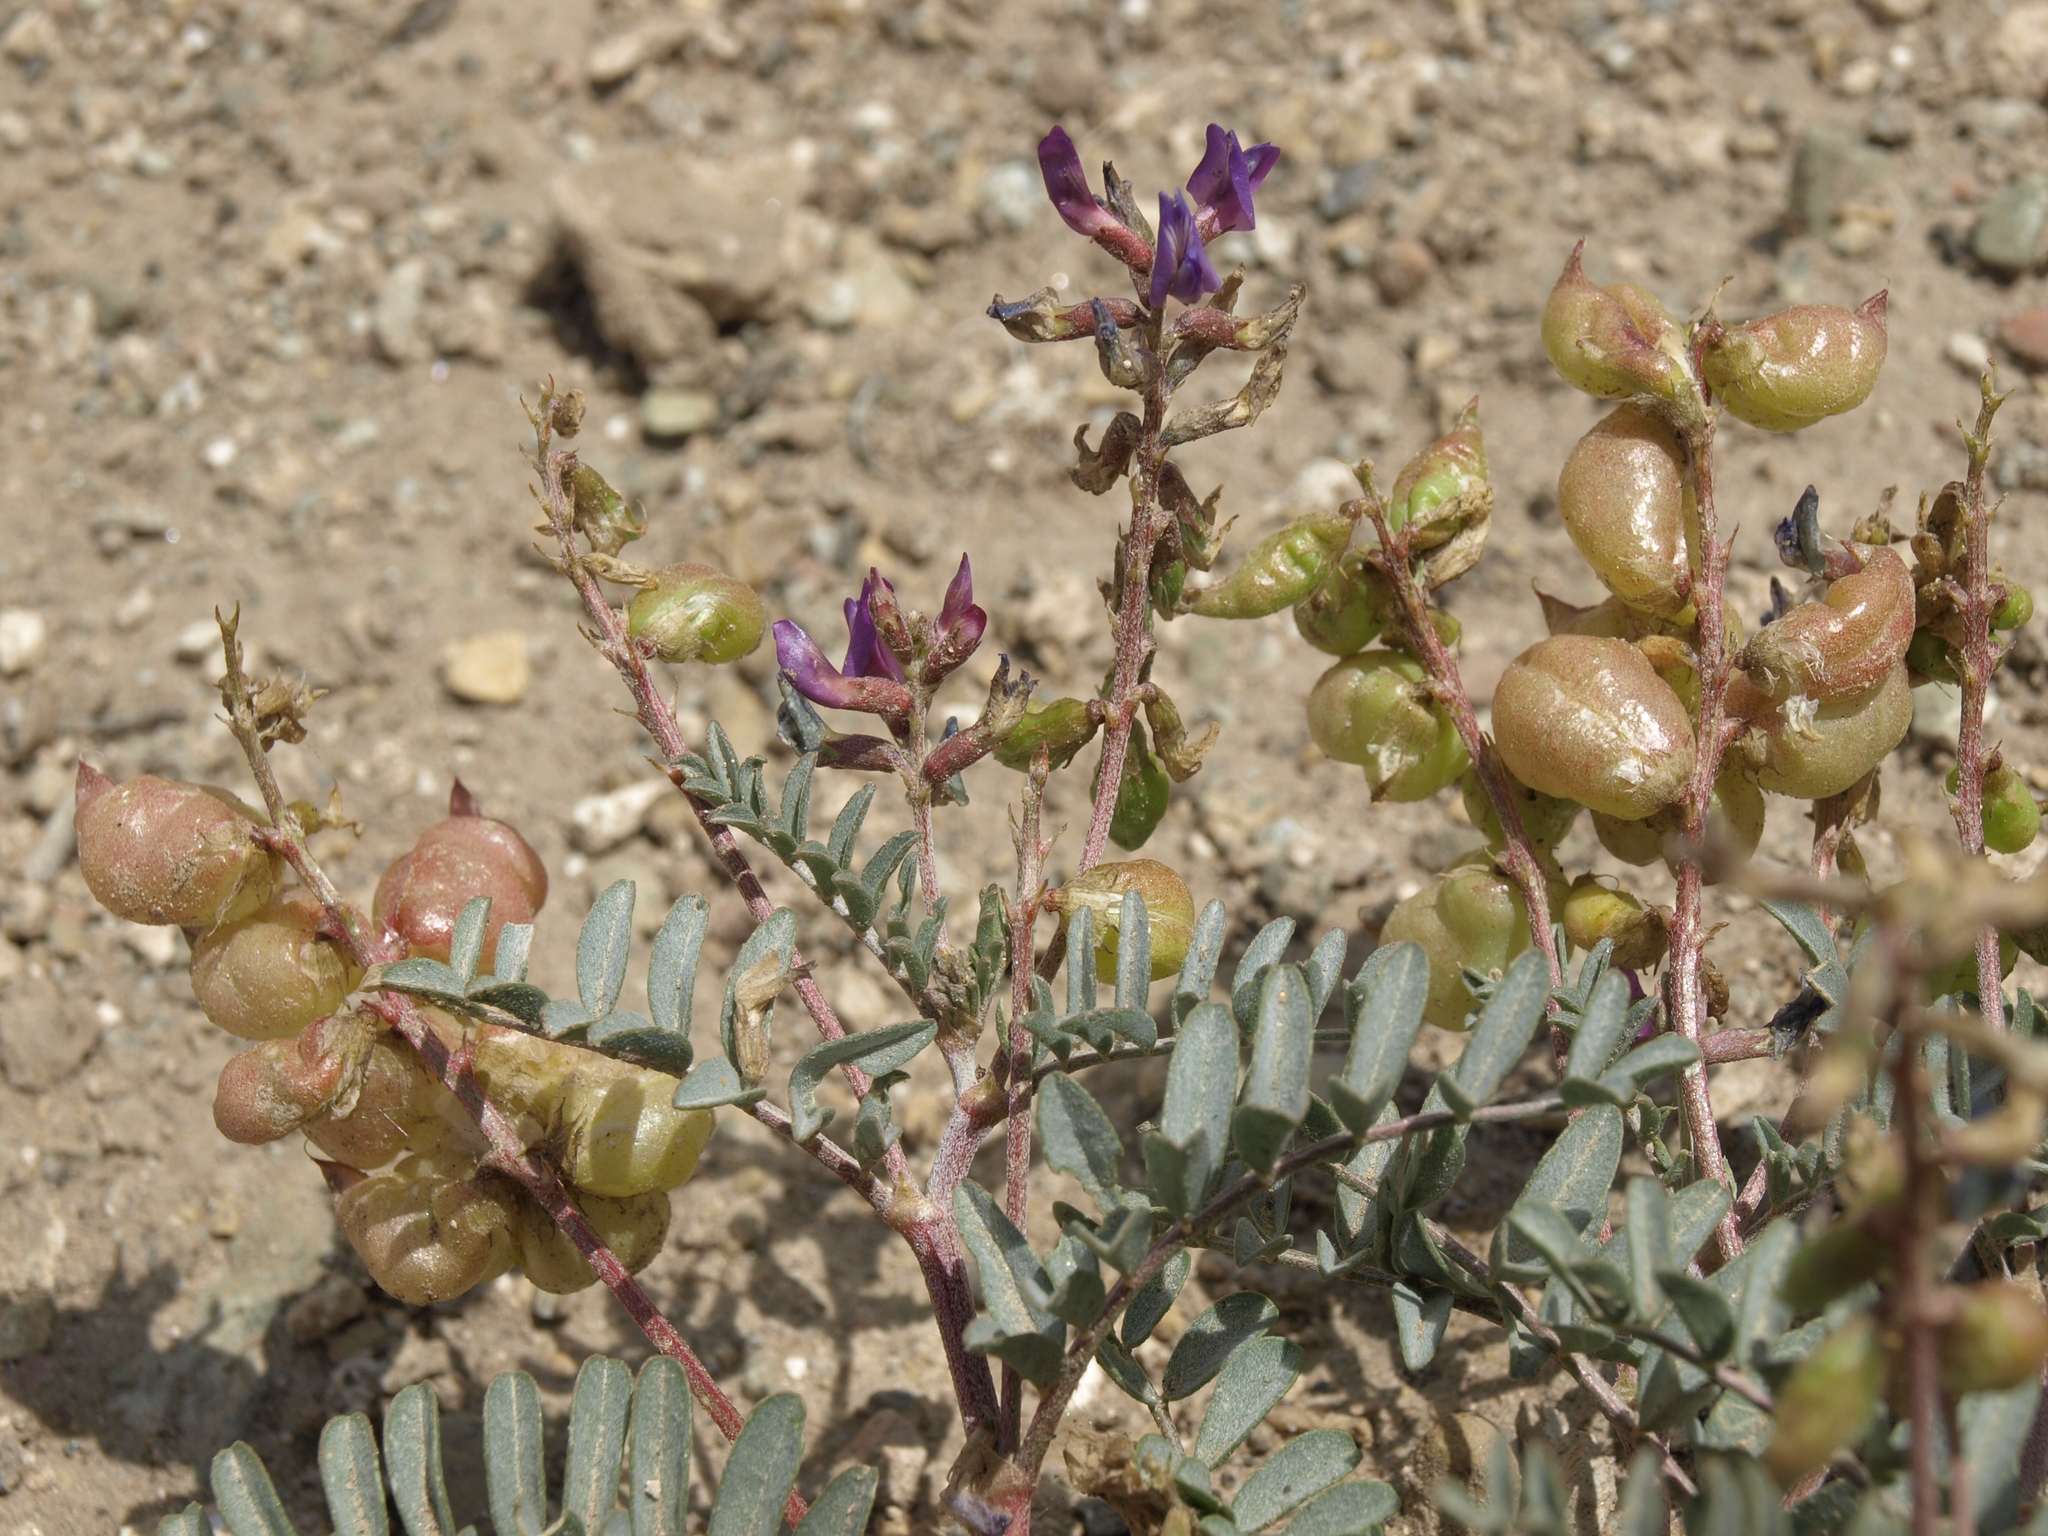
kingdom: Plantae
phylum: Tracheophyta
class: Magnoliopsida
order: Fabales
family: Fabaceae
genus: Astragalus
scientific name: Astragalus lentiginosus
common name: Freckled milkvetch
